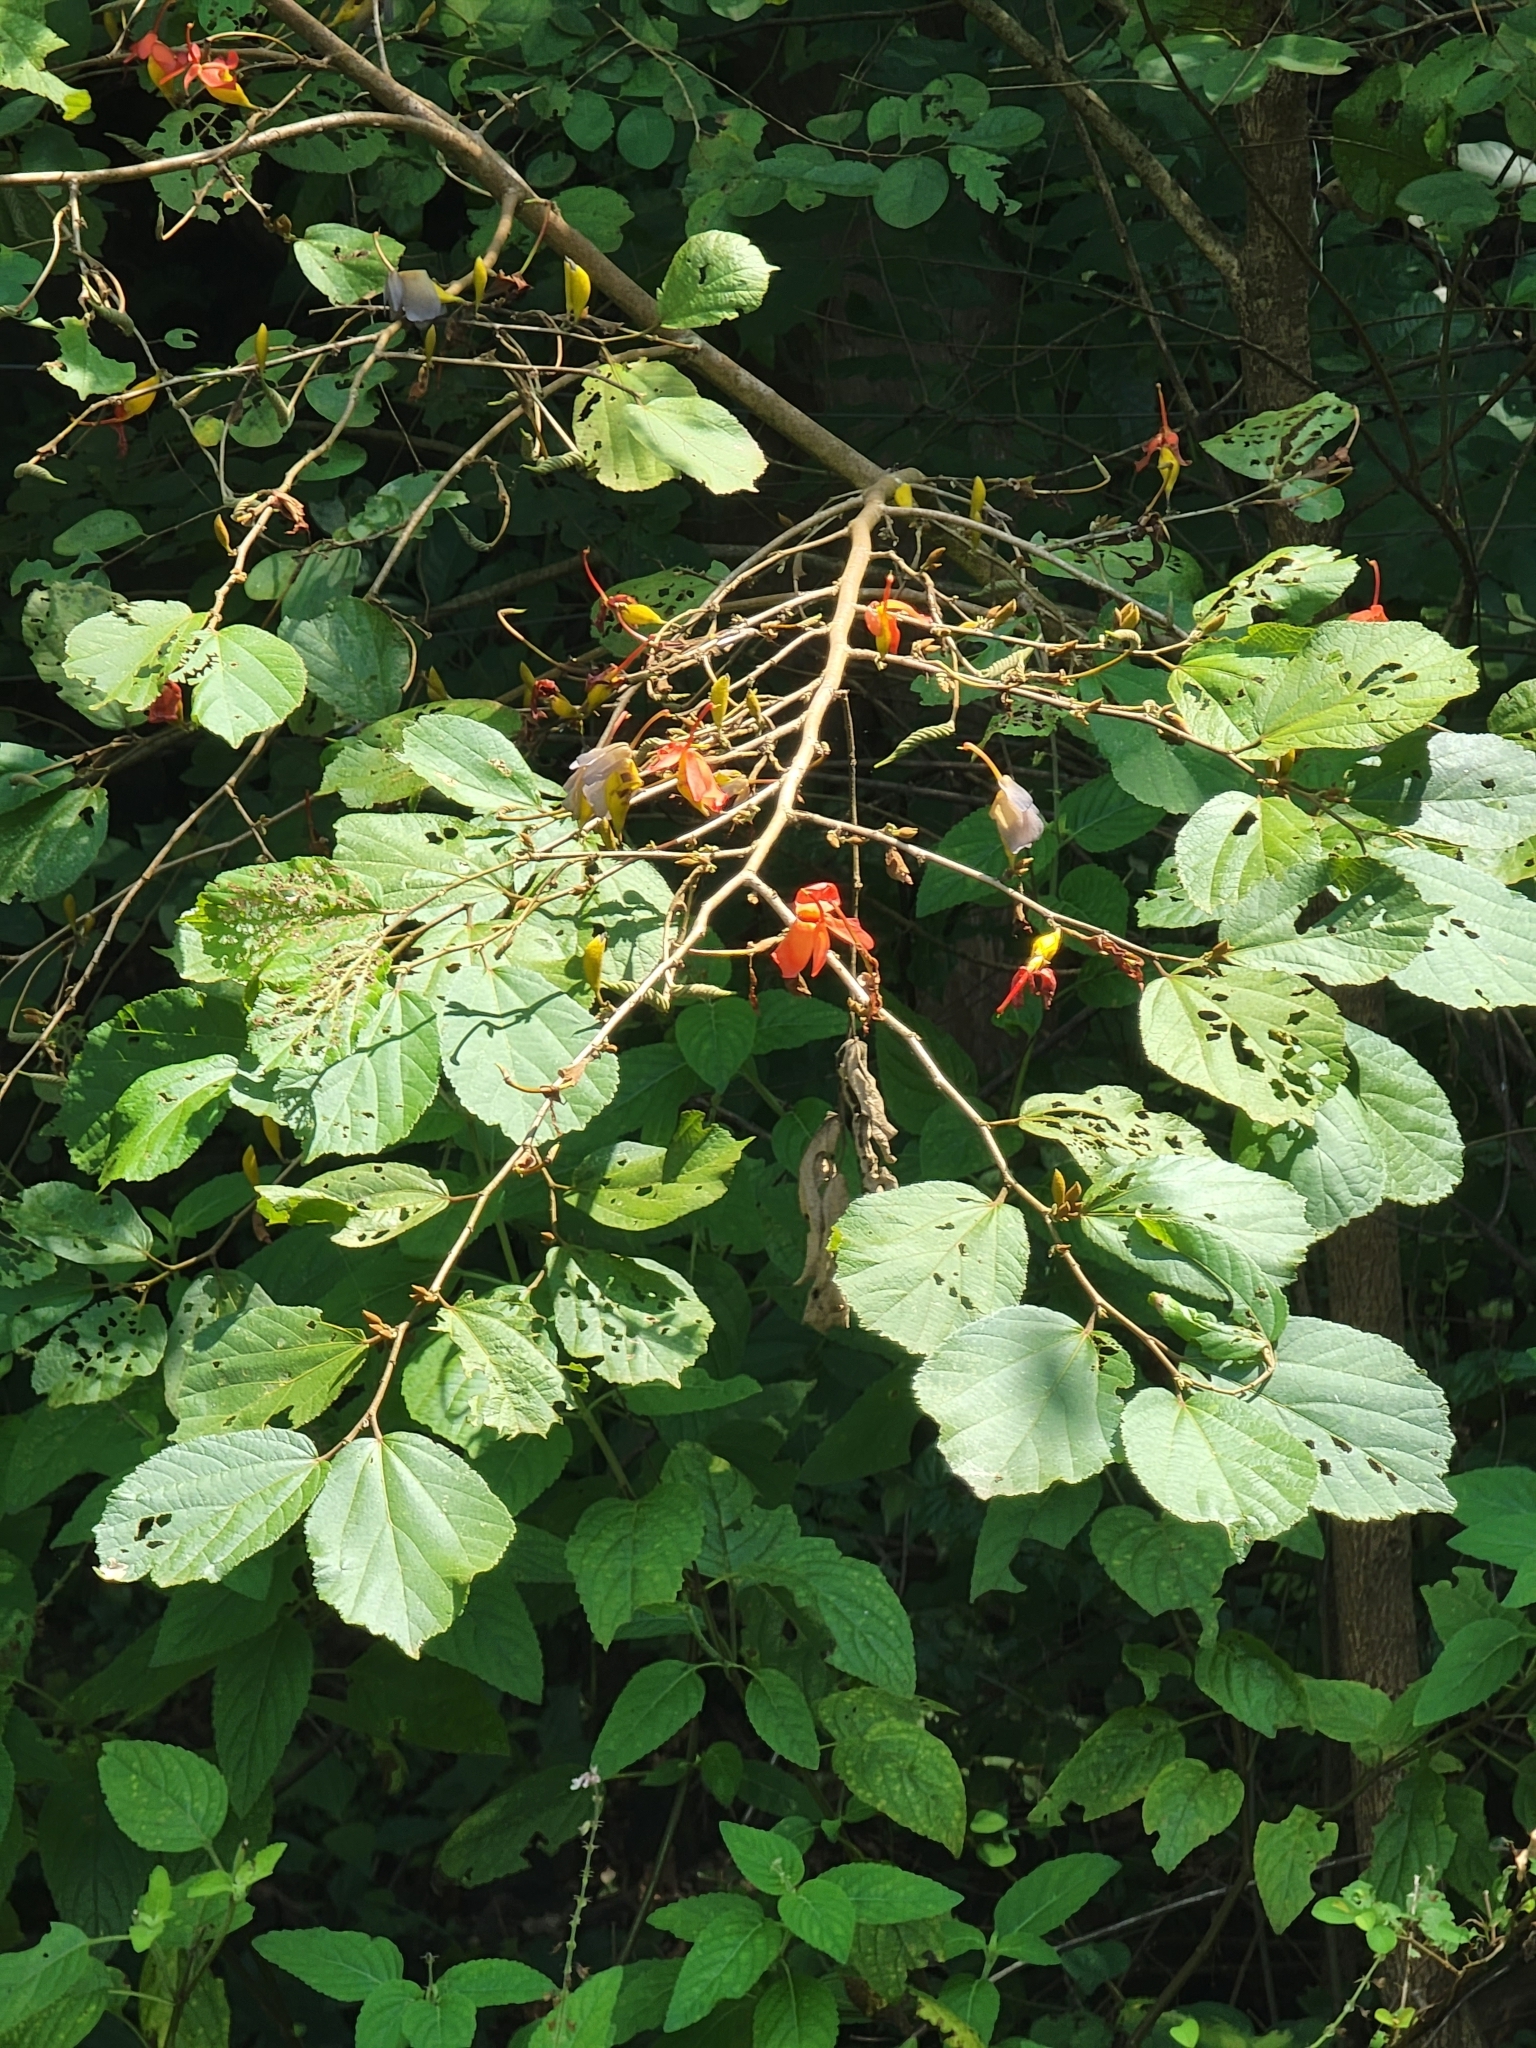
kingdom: Plantae
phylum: Tracheophyta
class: Magnoliopsida
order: Malvales
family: Malvaceae
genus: Helicteres
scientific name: Helicteres isora
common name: East indian screwtree
